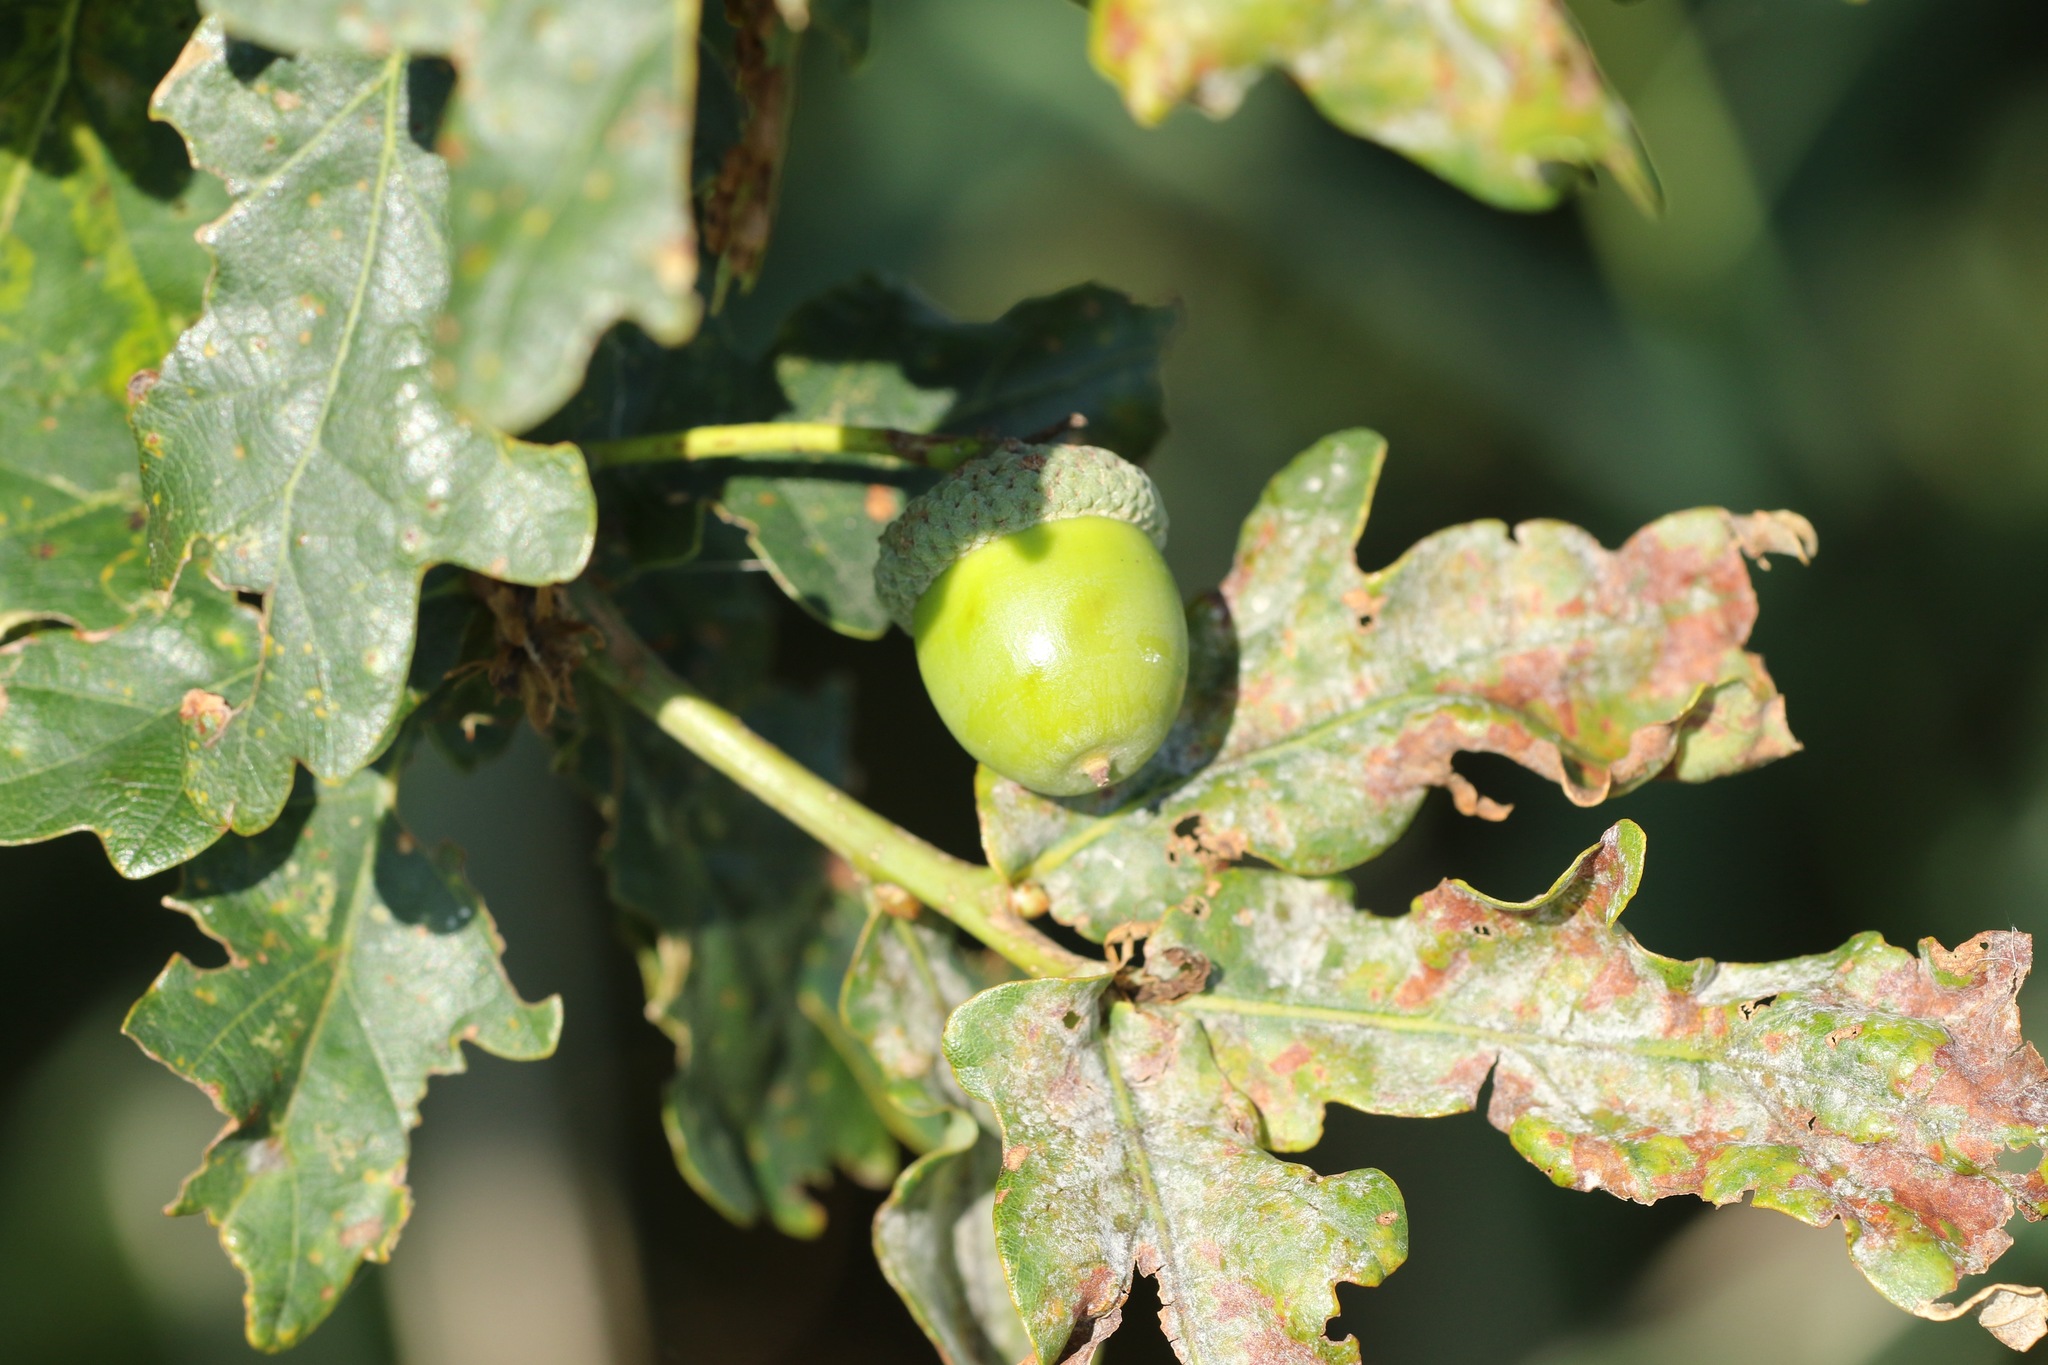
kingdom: Plantae
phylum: Tracheophyta
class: Magnoliopsida
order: Fagales
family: Fagaceae
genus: Quercus
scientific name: Quercus robur
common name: Pedunculate oak
